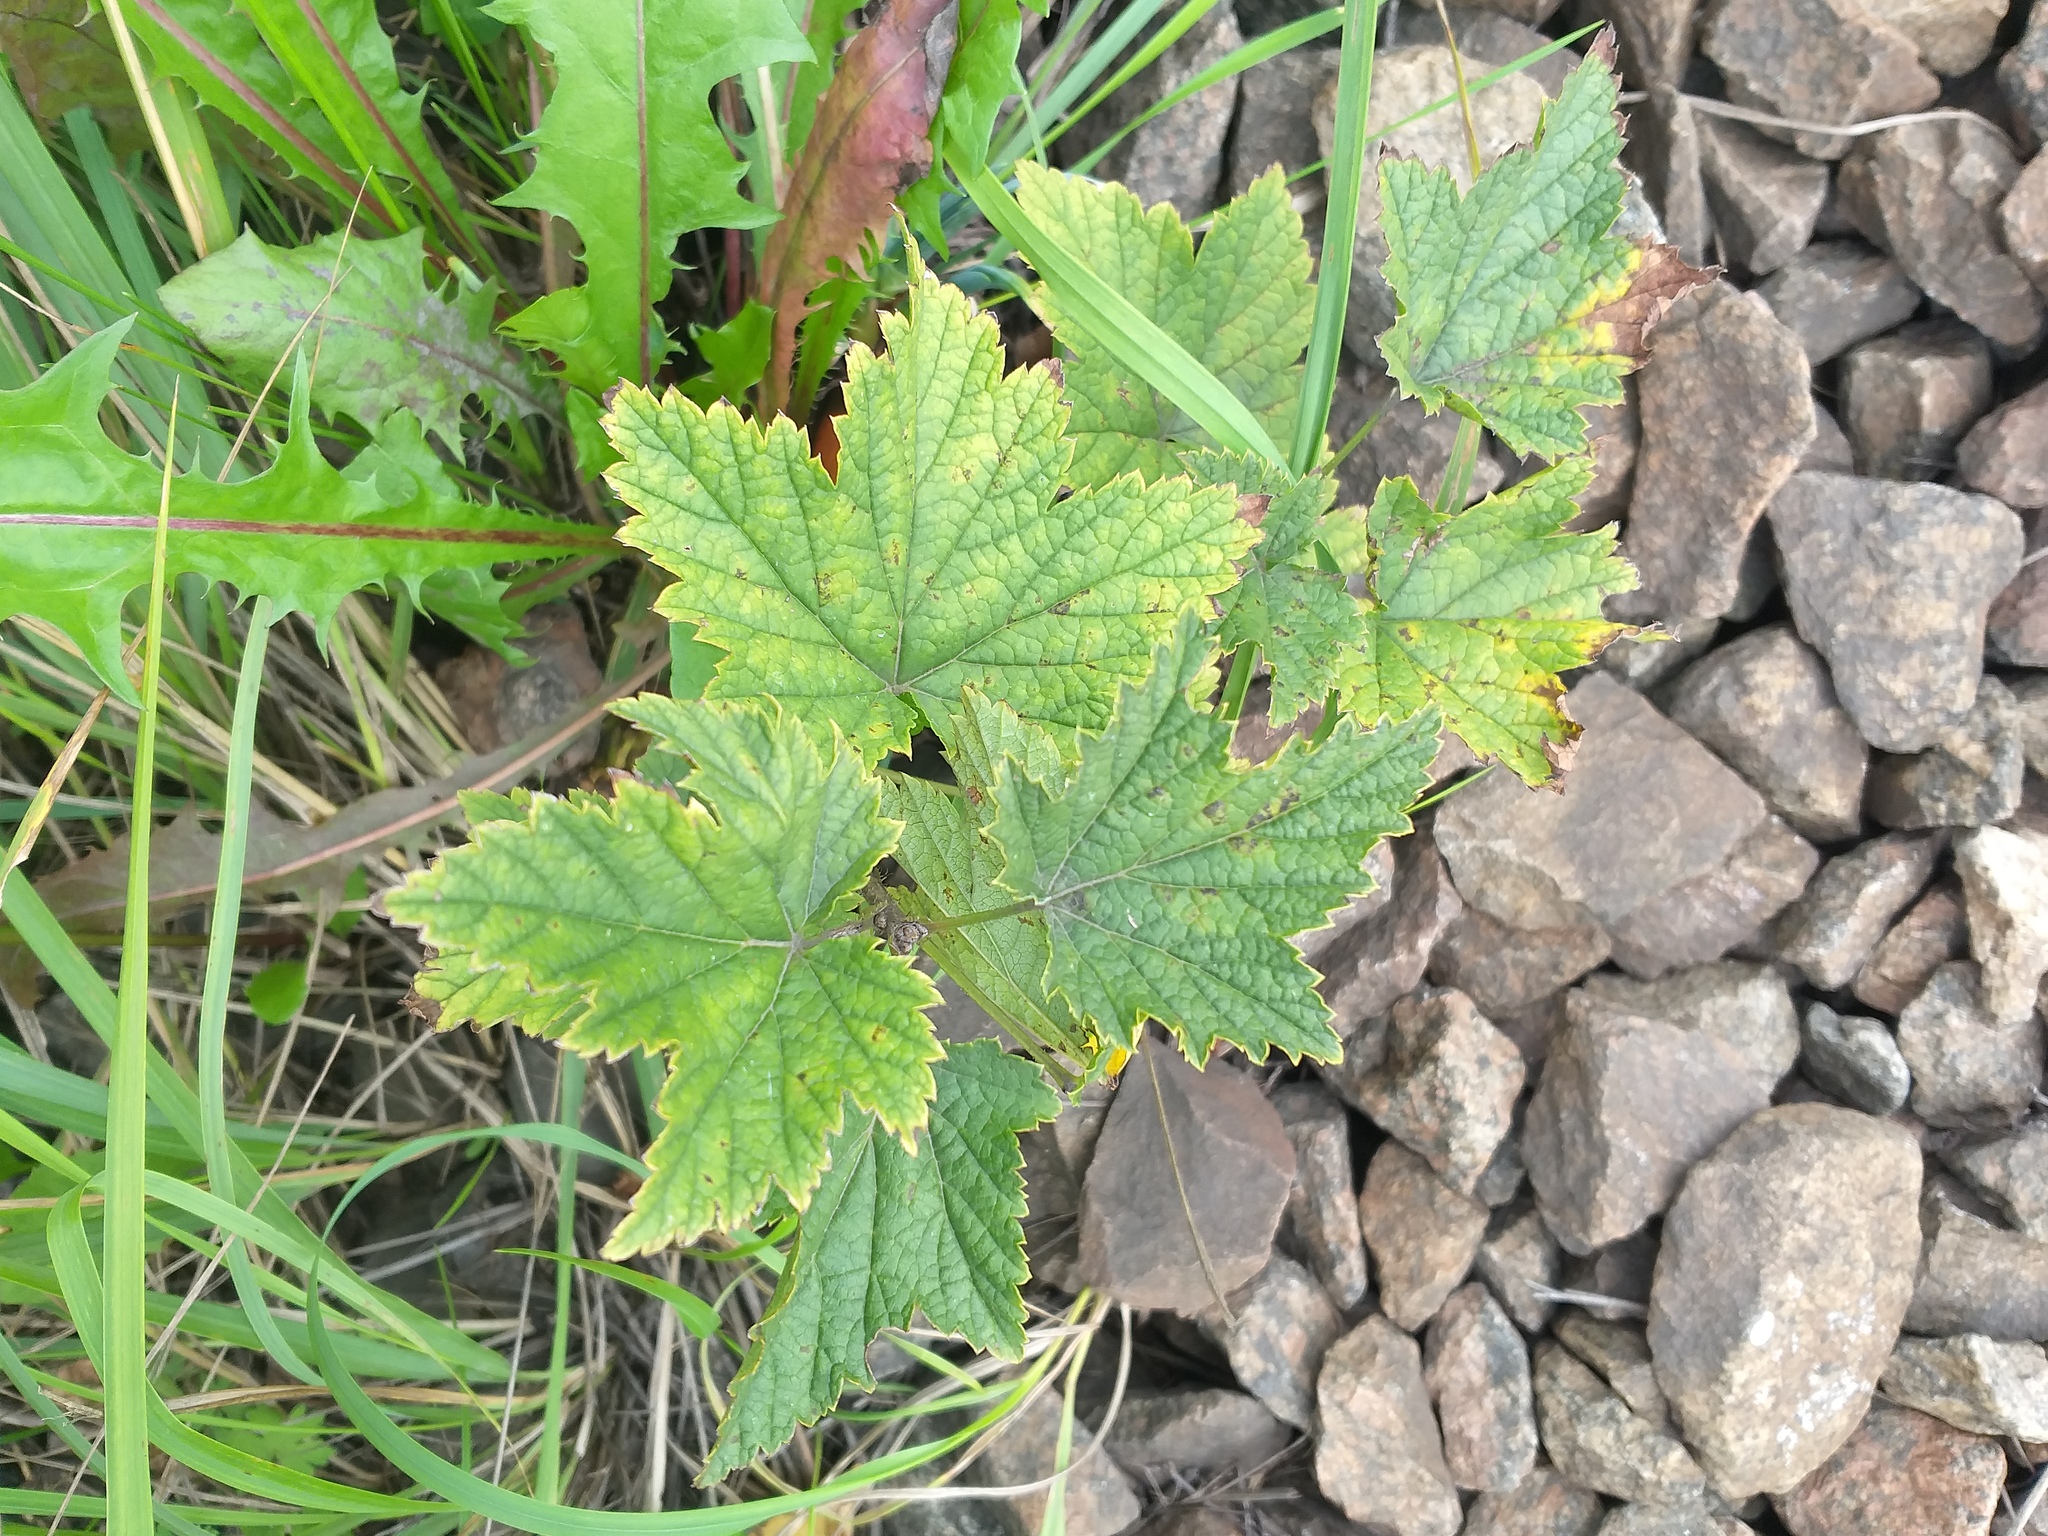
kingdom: Plantae
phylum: Tracheophyta
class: Magnoliopsida
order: Saxifragales
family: Grossulariaceae
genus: Ribes
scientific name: Ribes rubrum
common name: Red currant
